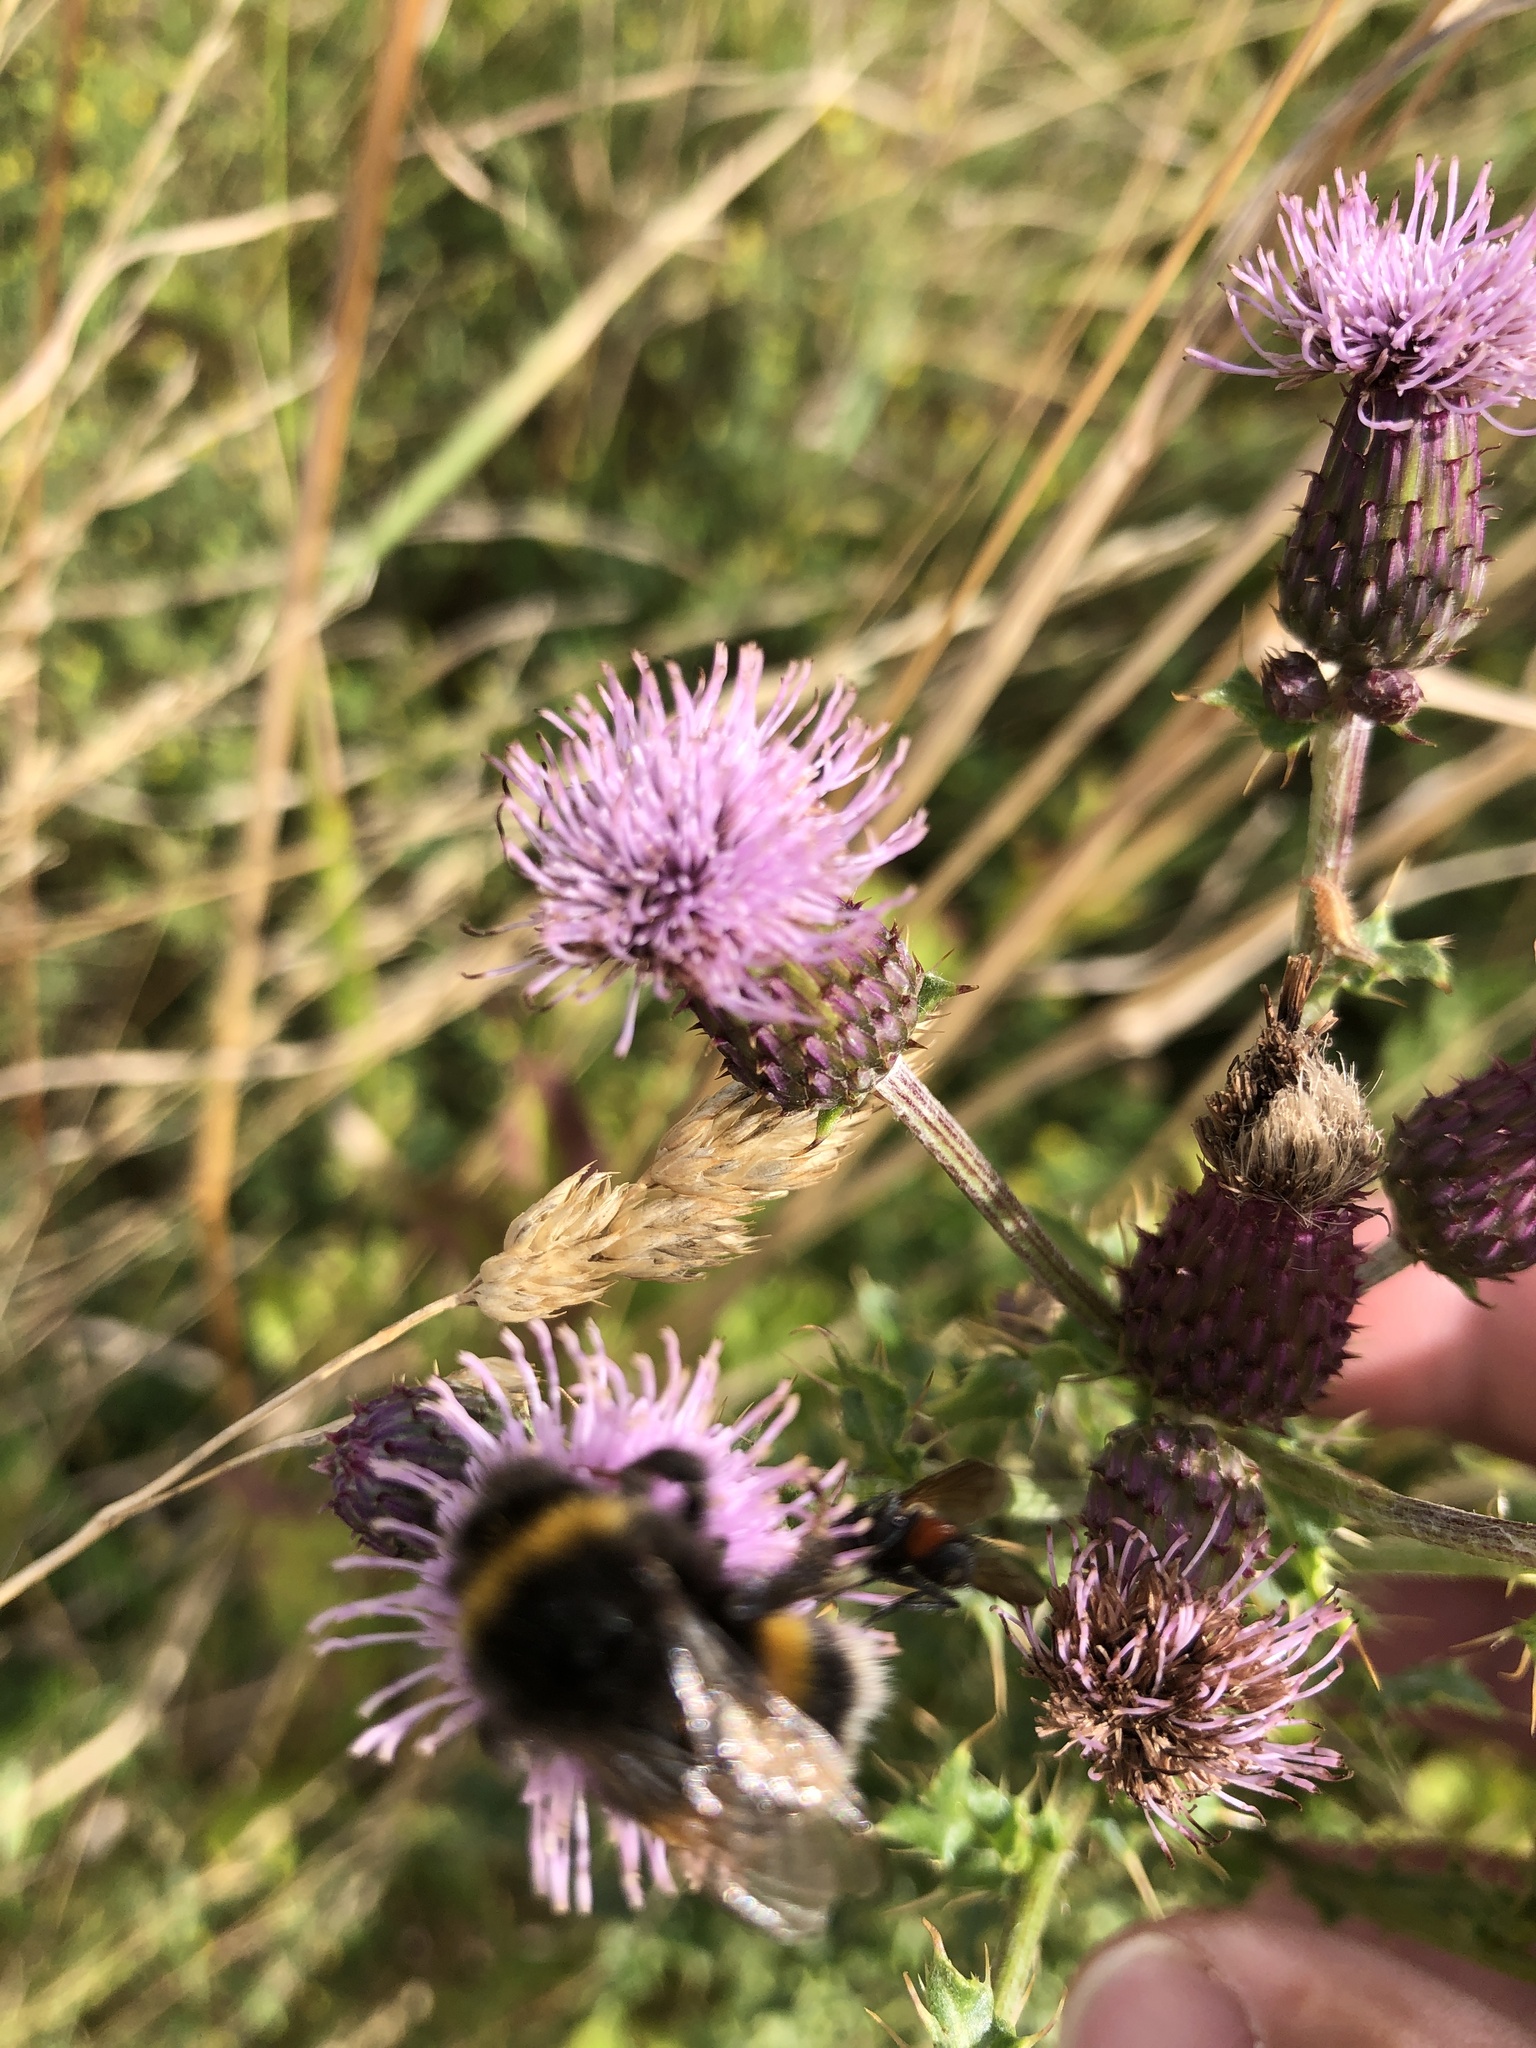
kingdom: Animalia
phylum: Arthropoda
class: Insecta
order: Hymenoptera
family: Apidae
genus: Bombus
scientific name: Bombus terrestris
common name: Buff-tailed bumblebee
